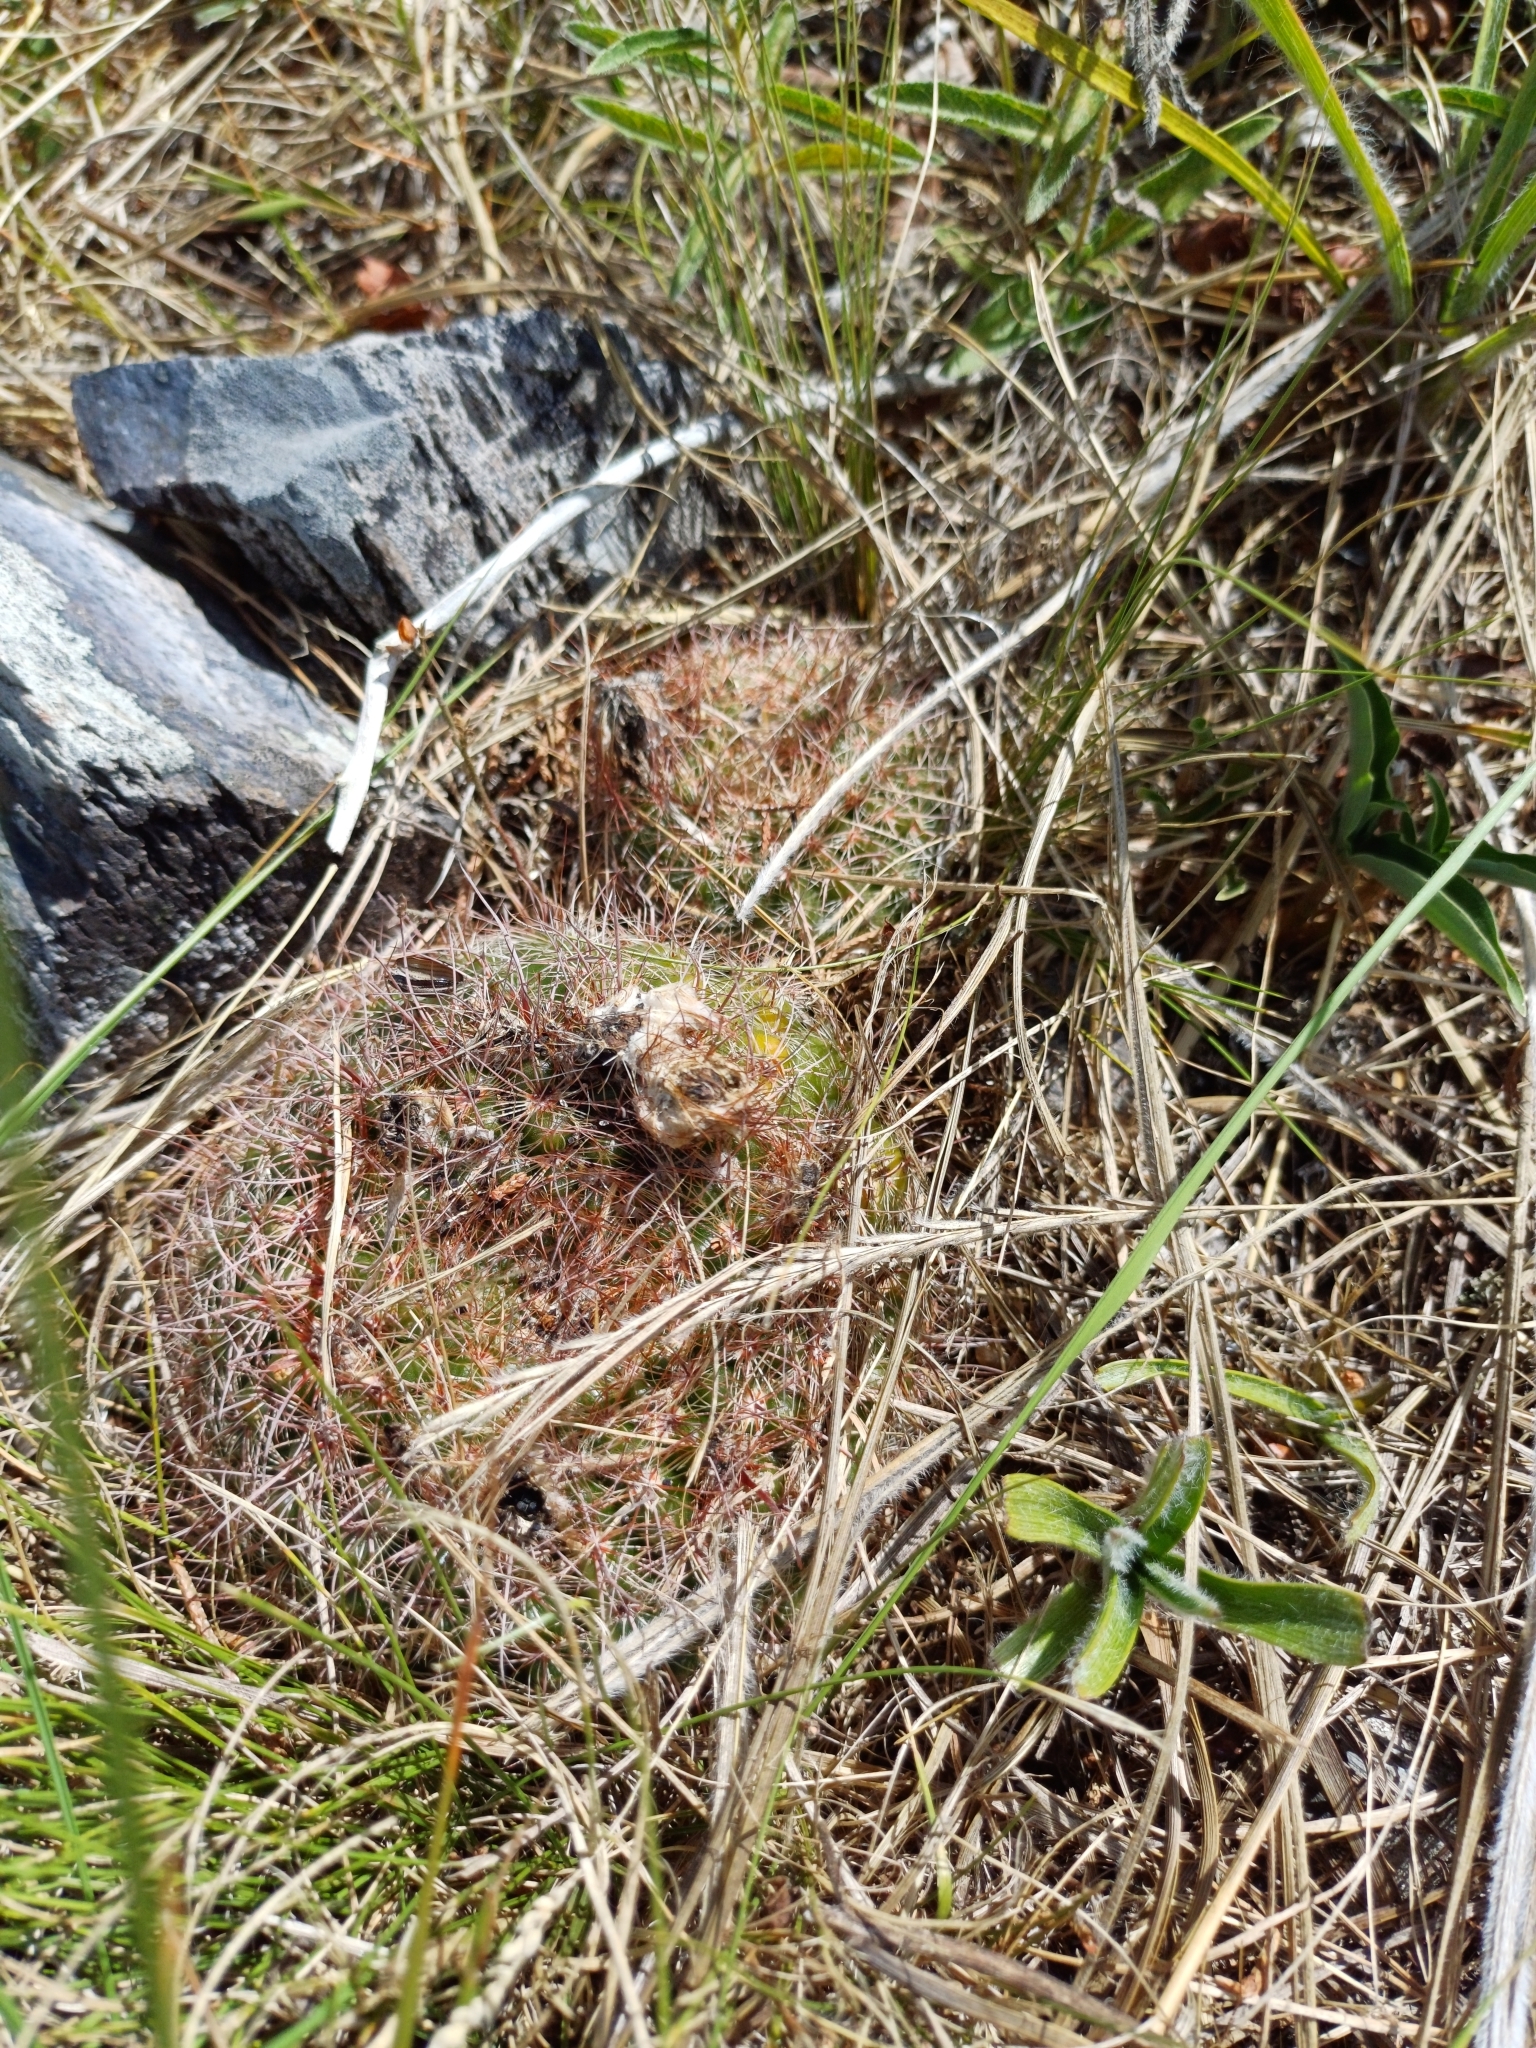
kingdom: Plantae
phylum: Tracheophyta
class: Magnoliopsida
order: Caryophyllales
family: Cactaceae
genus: Parodia
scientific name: Parodia concinna
